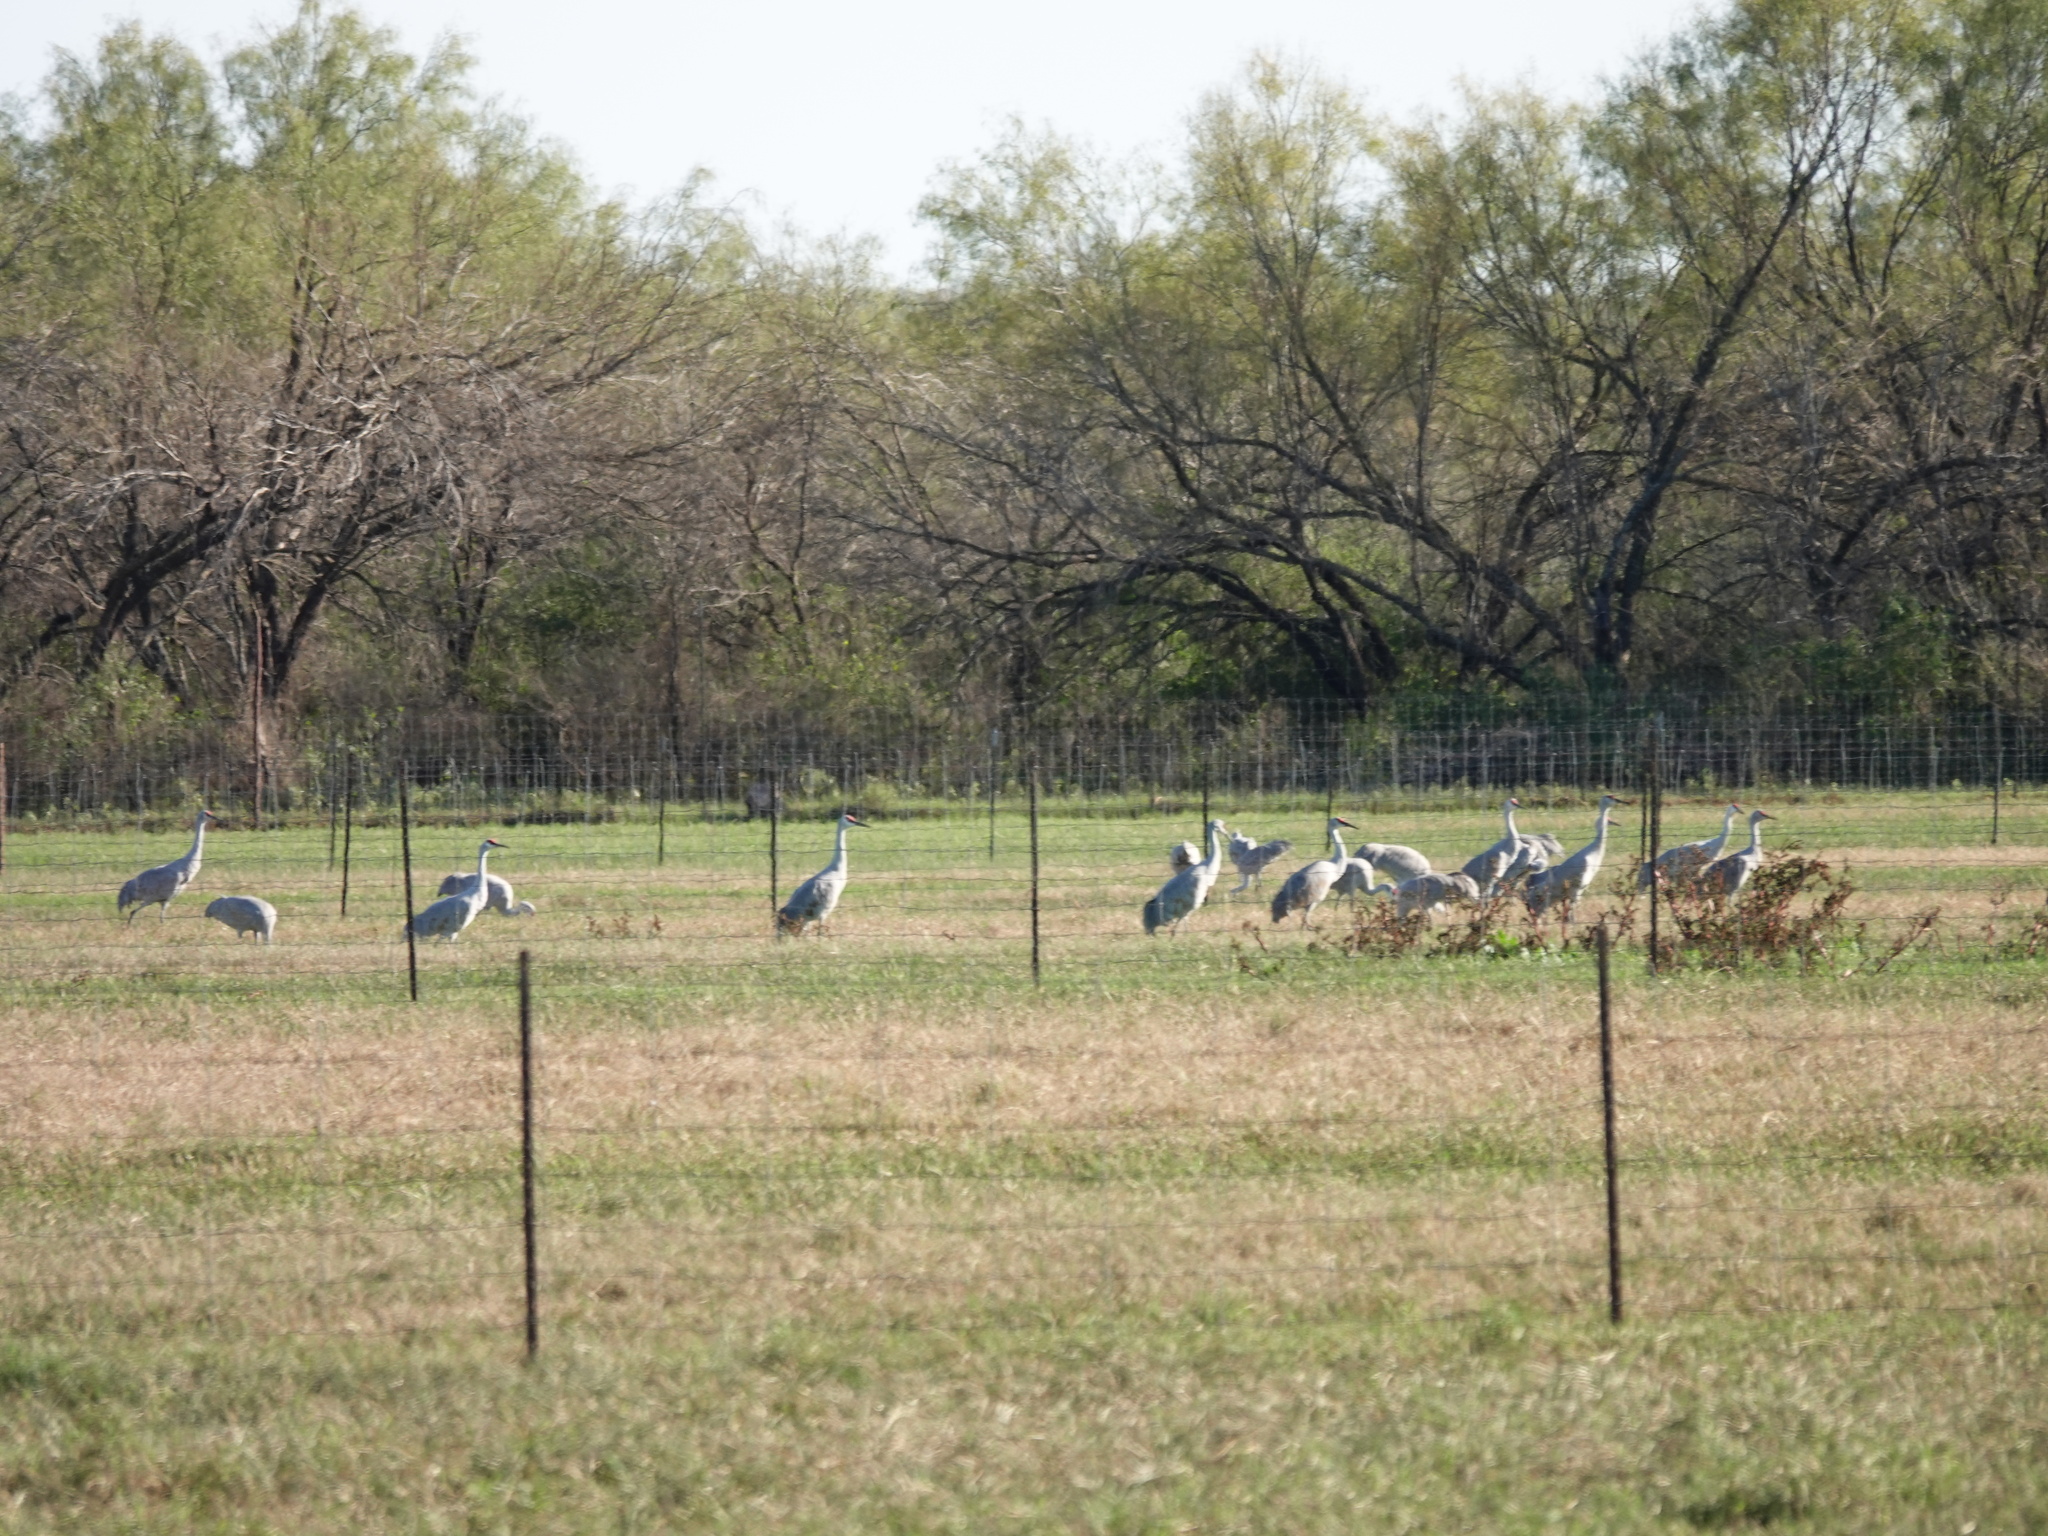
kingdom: Animalia
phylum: Chordata
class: Aves
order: Gruiformes
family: Gruidae
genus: Grus
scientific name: Grus canadensis
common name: Sandhill crane
